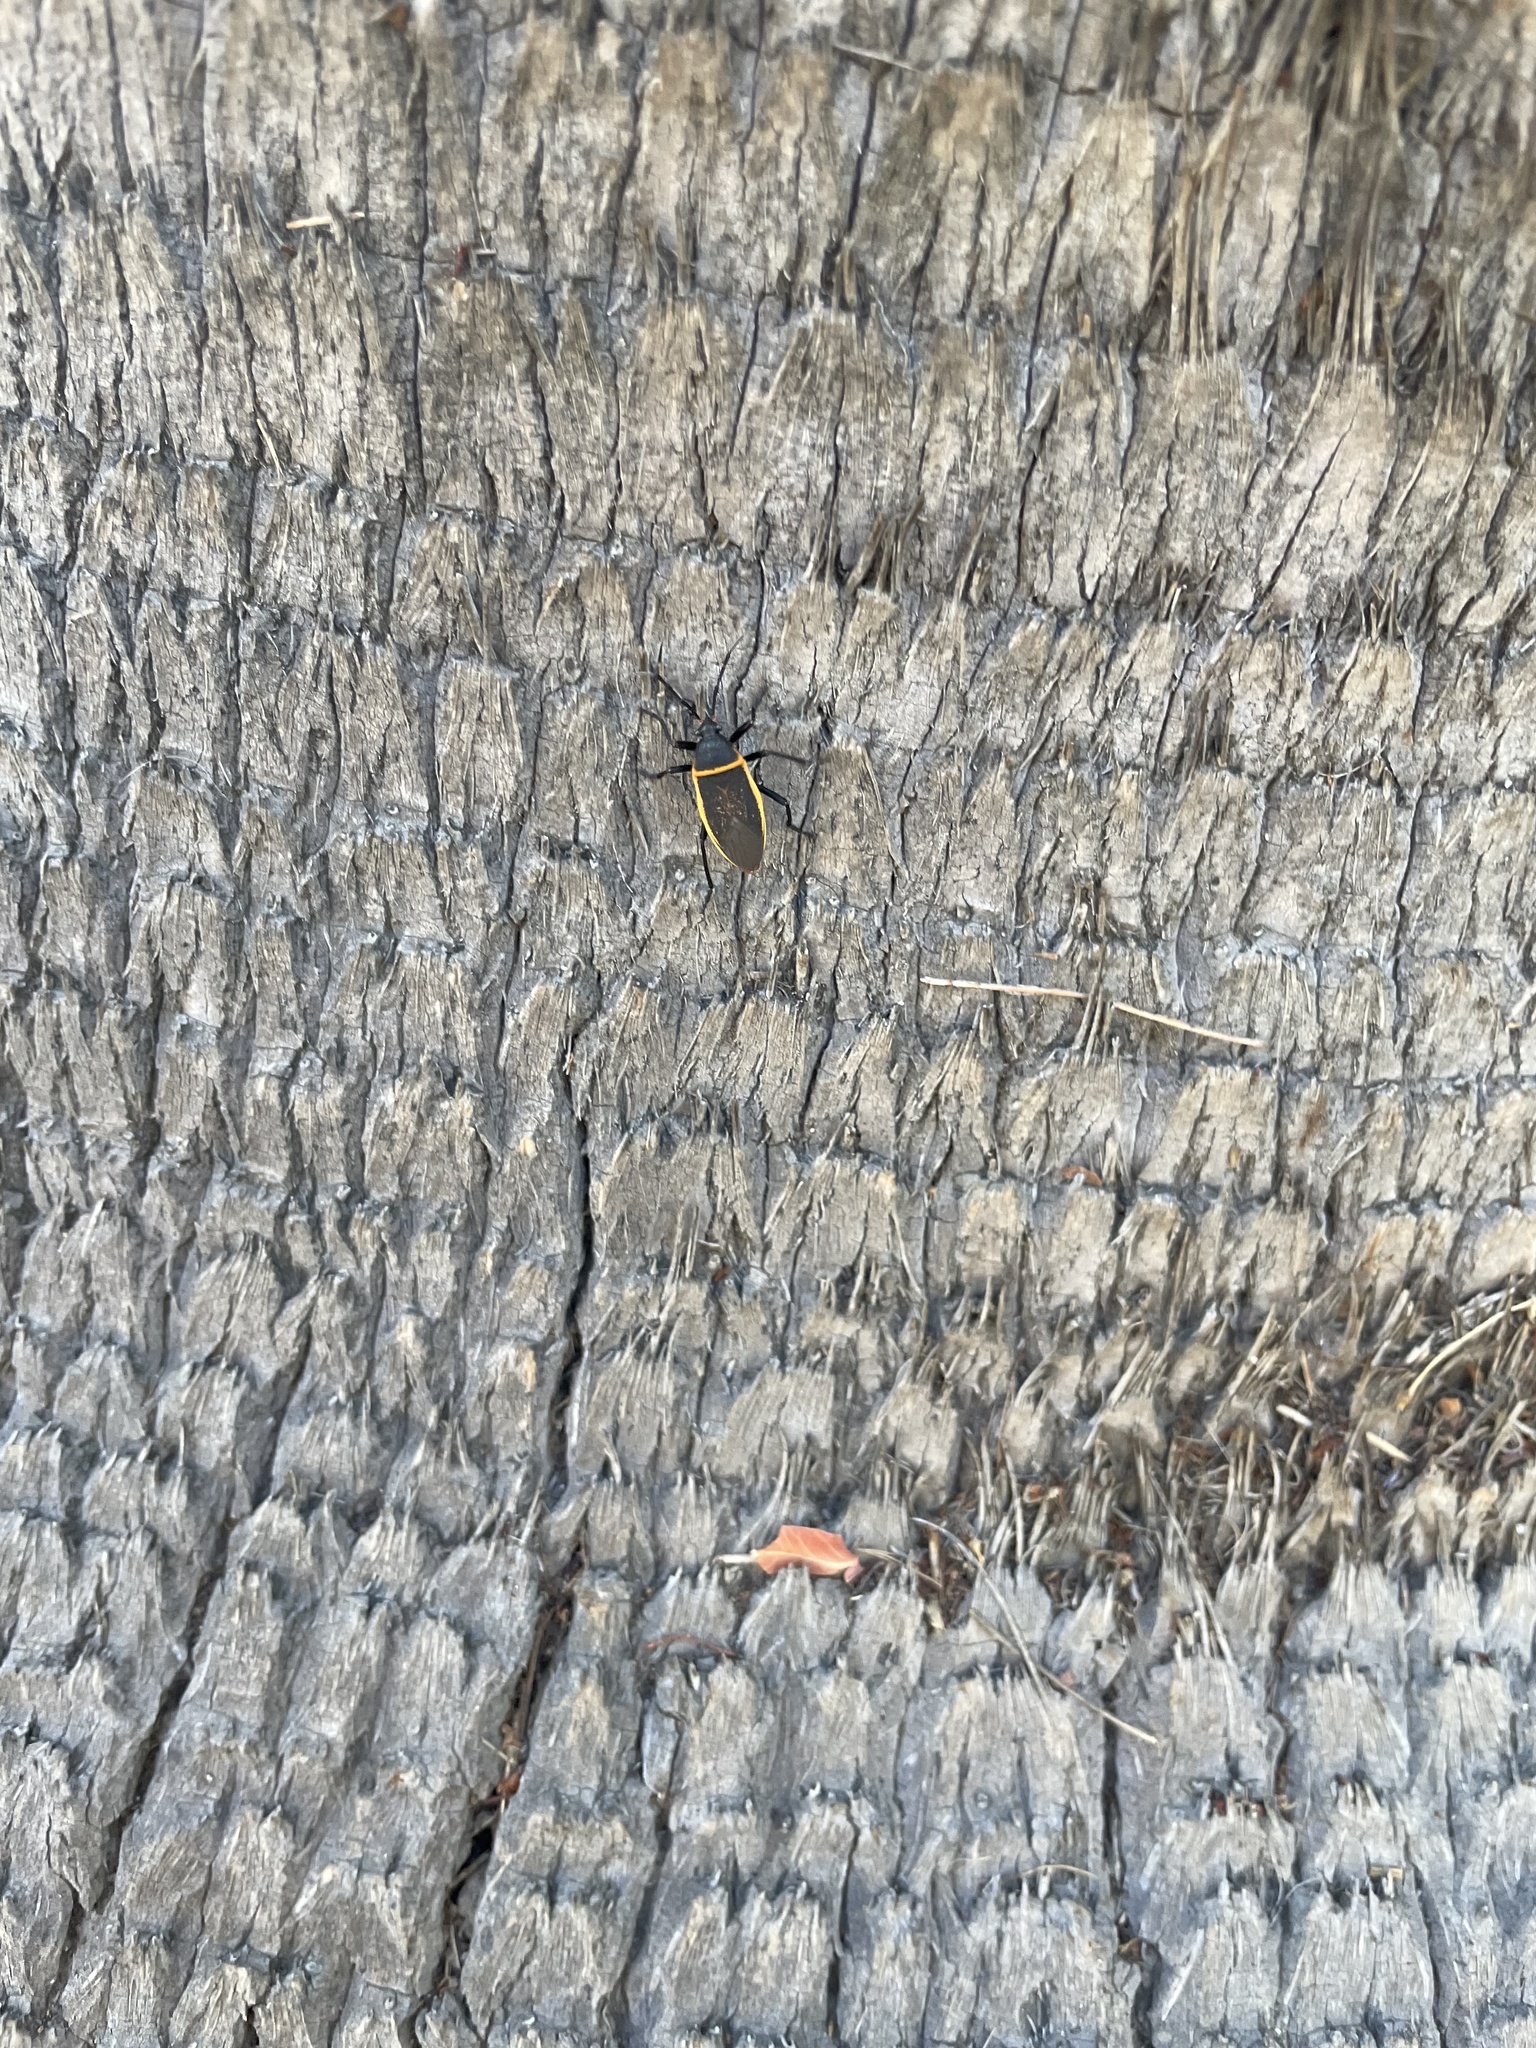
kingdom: Animalia
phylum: Arthropoda
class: Insecta
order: Hemiptera
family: Largidae
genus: Largus
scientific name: Largus californicus
